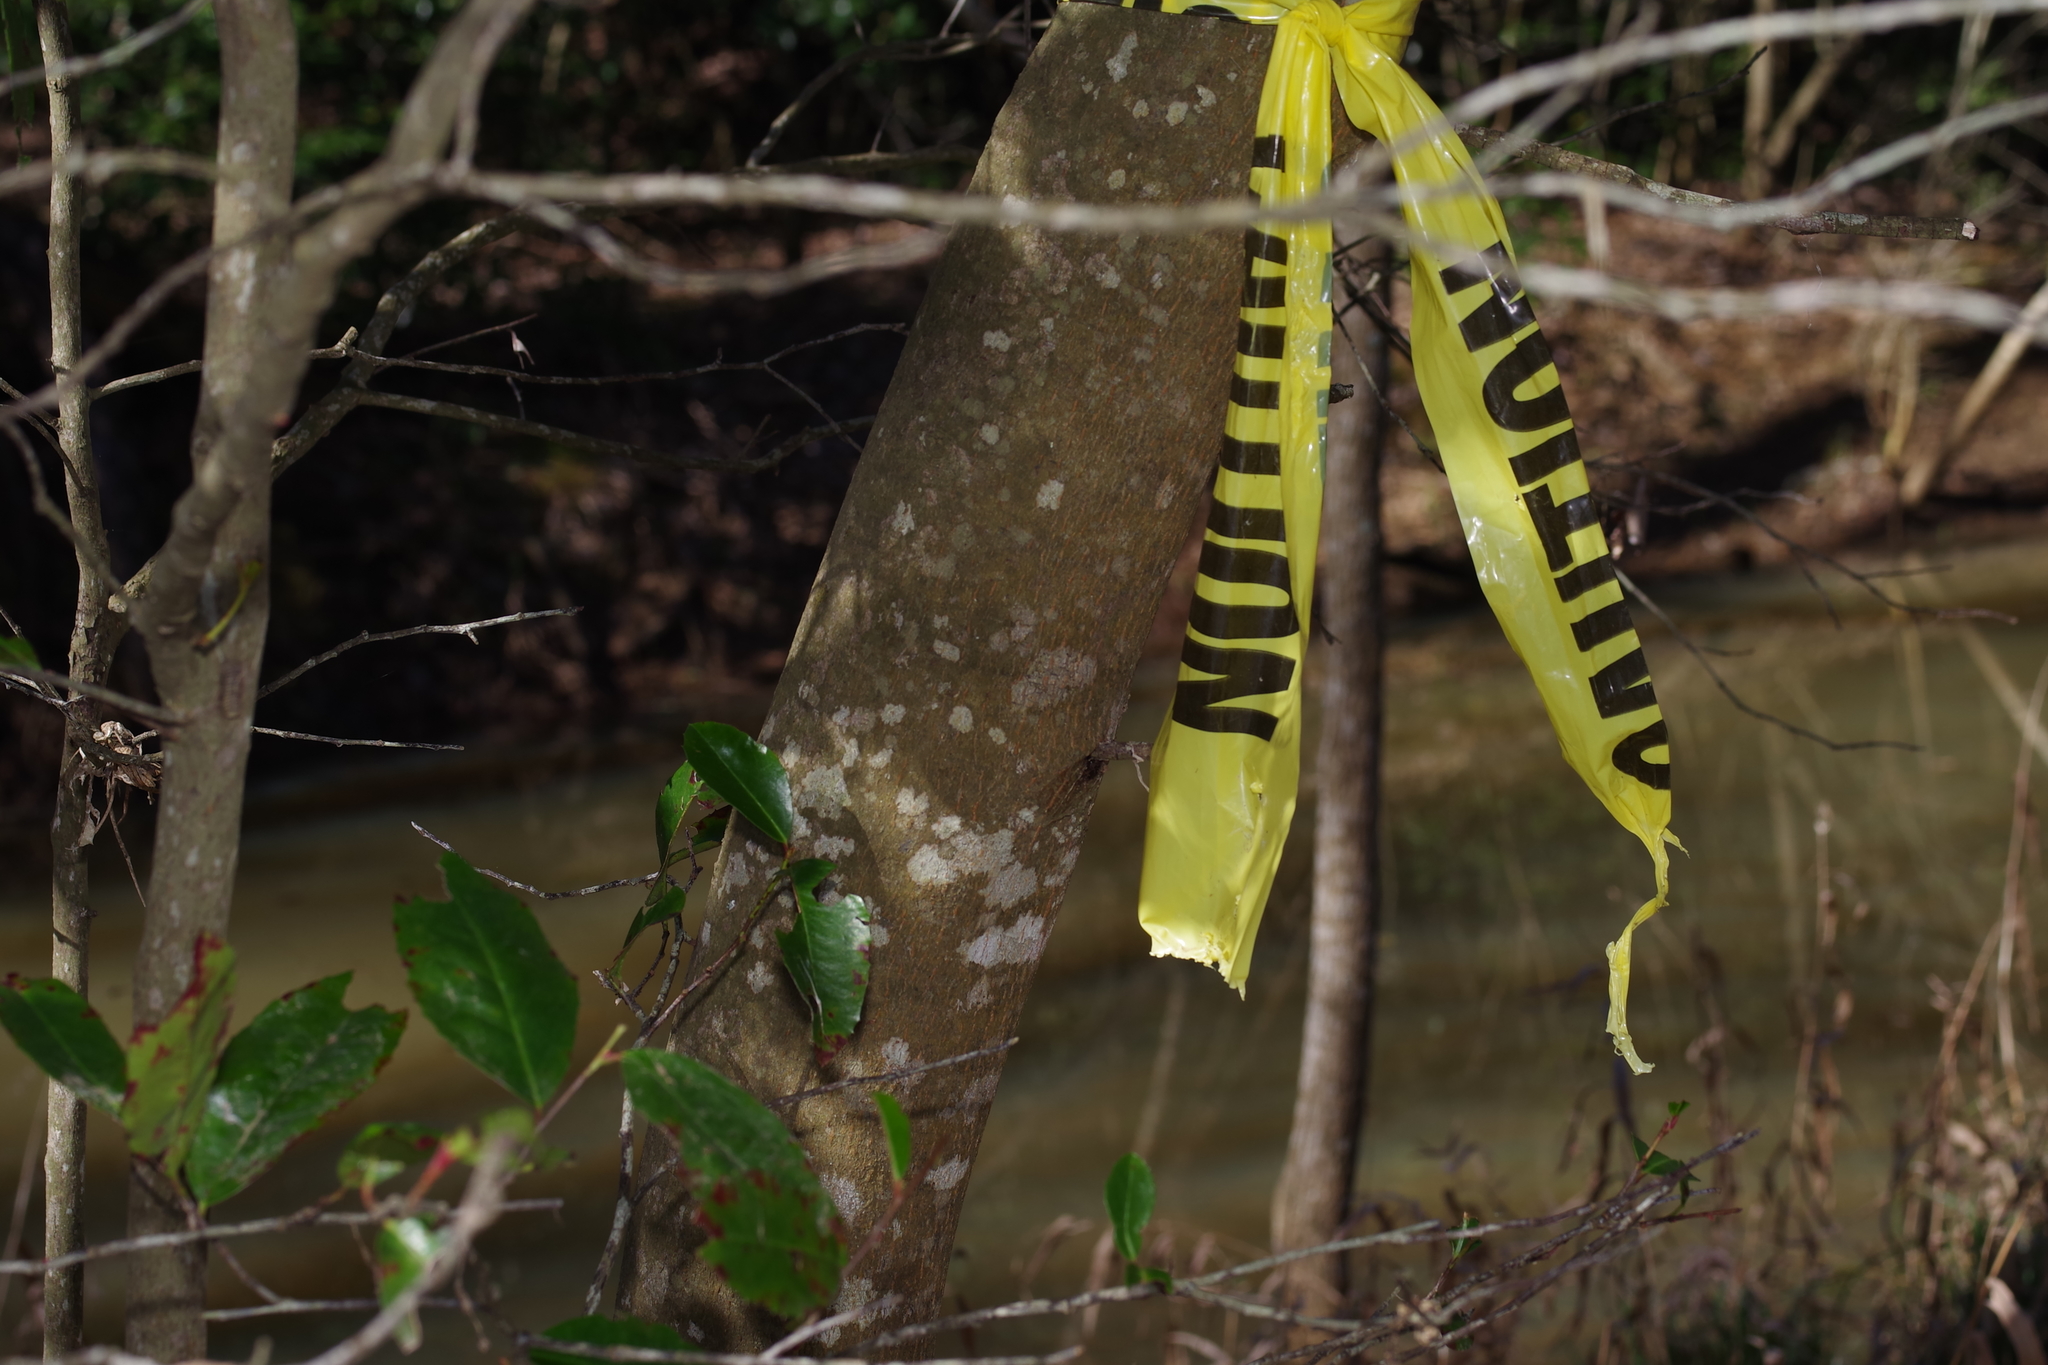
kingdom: Plantae
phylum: Tracheophyta
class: Magnoliopsida
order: Rosales
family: Rosaceae
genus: Prunus
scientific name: Prunus caroliniana
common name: Carolina laurel cherry
